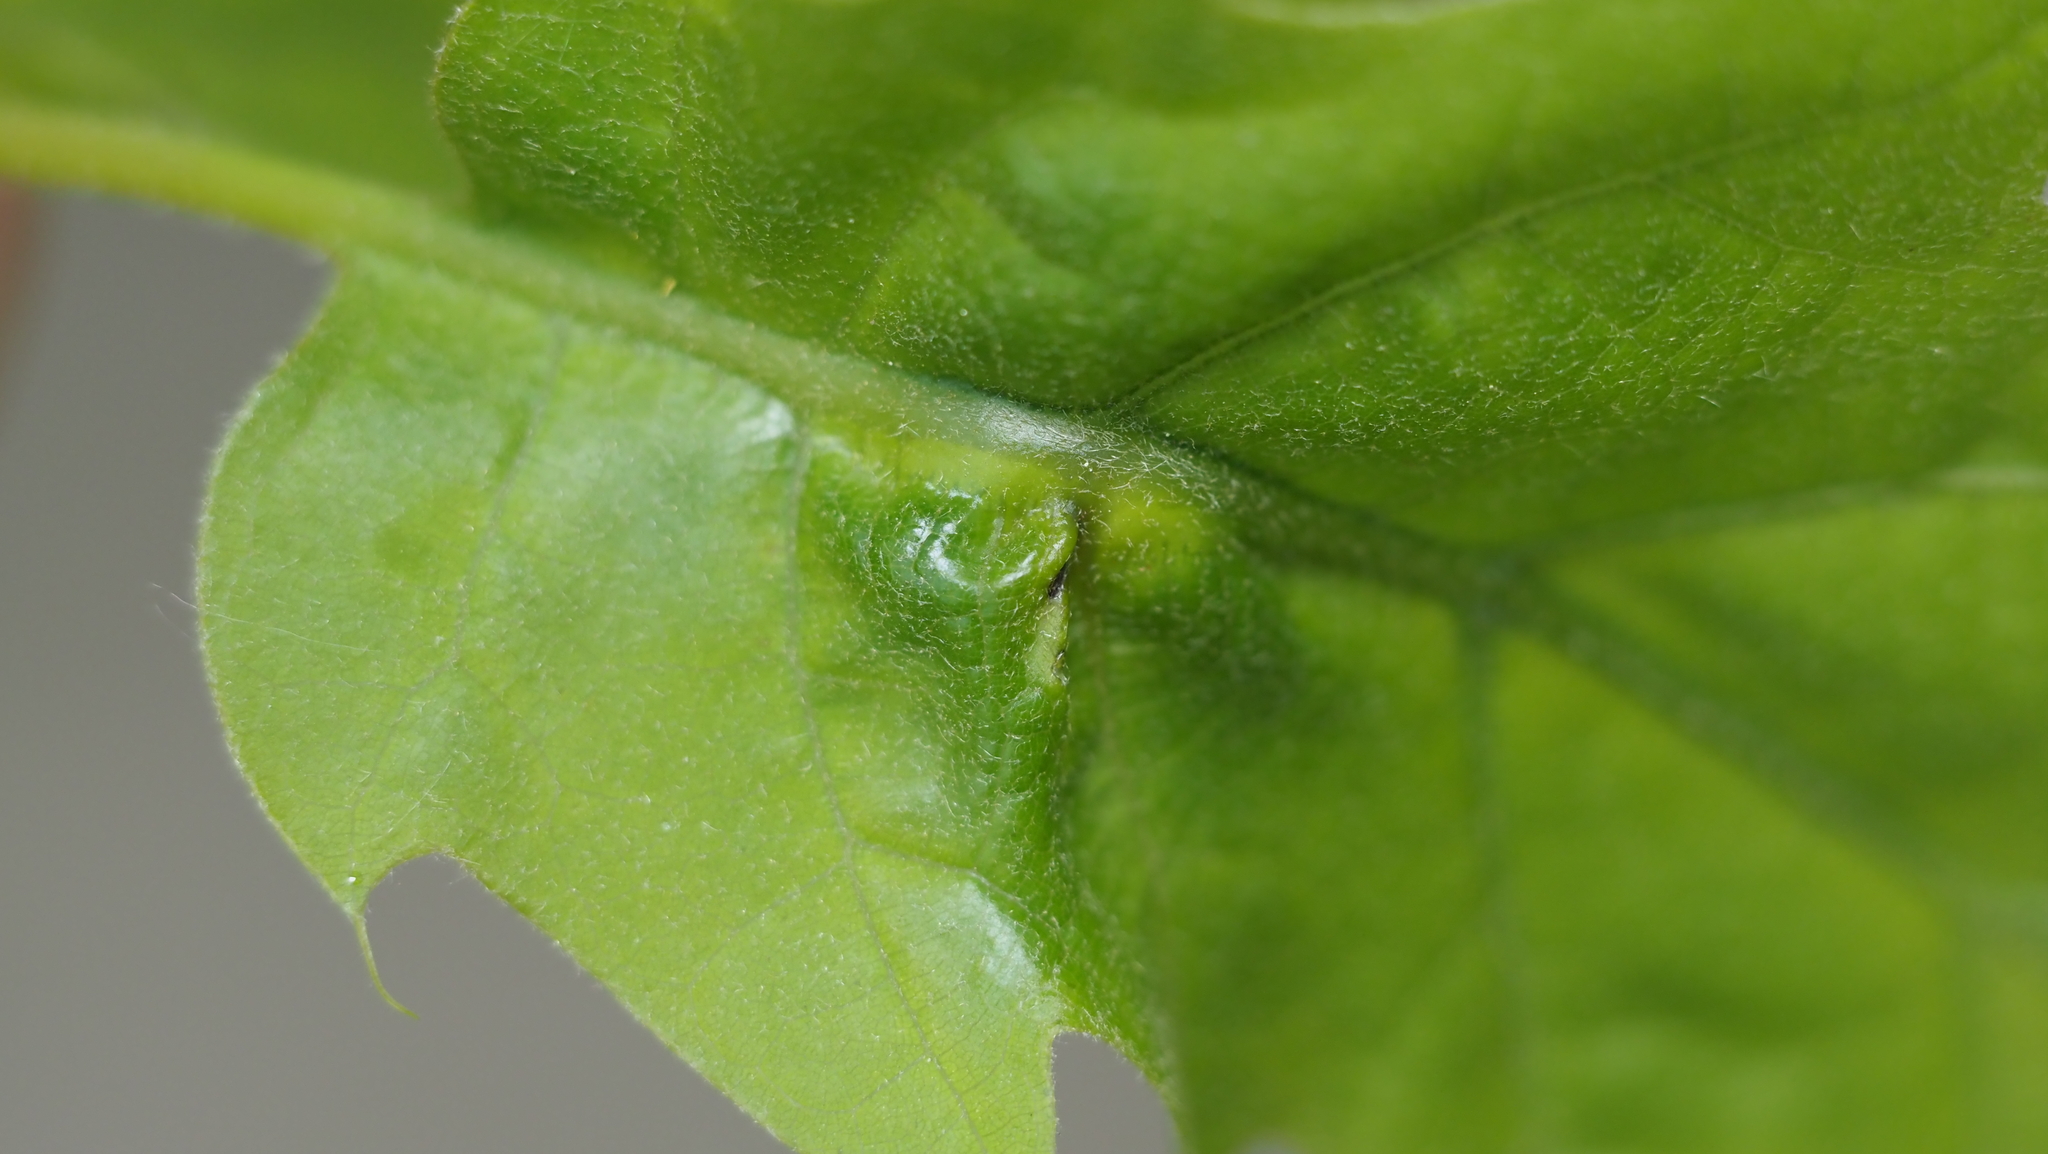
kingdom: Animalia
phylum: Arthropoda
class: Insecta
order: Hymenoptera
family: Cynipidae
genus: Melikaiella
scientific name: Melikaiella tumifica
